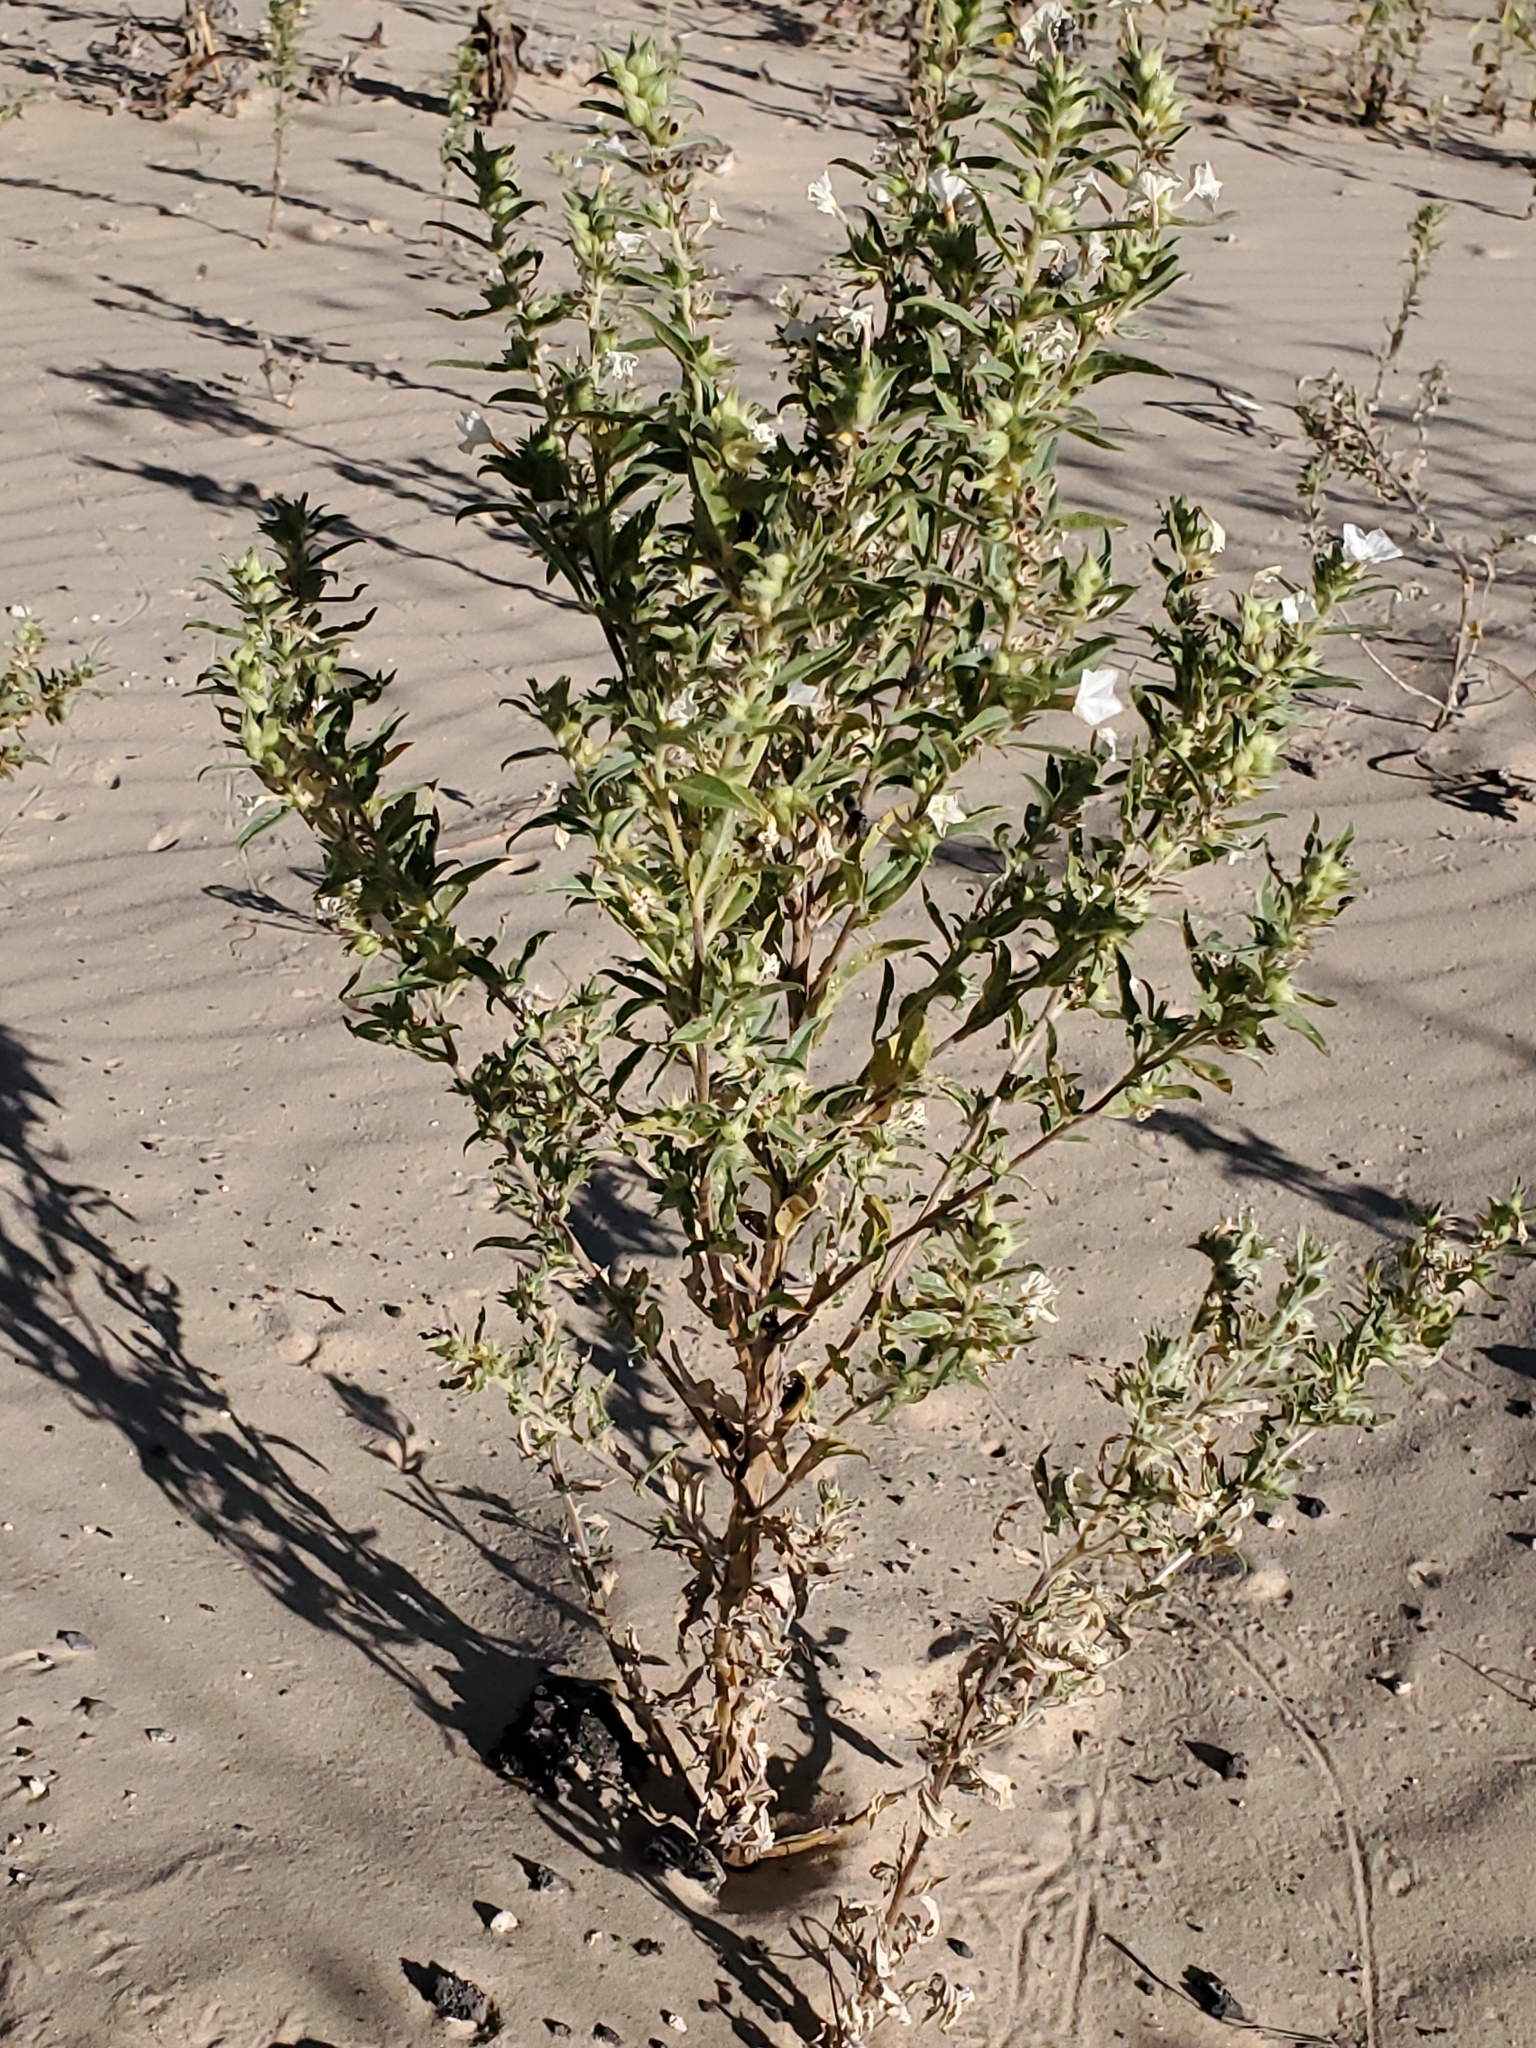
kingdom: Plantae
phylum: Tracheophyta
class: Magnoliopsida
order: Boraginales
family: Heliotropiaceae
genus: Euploca
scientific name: Euploca convolvulacea
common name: Bindweed heliotrope
